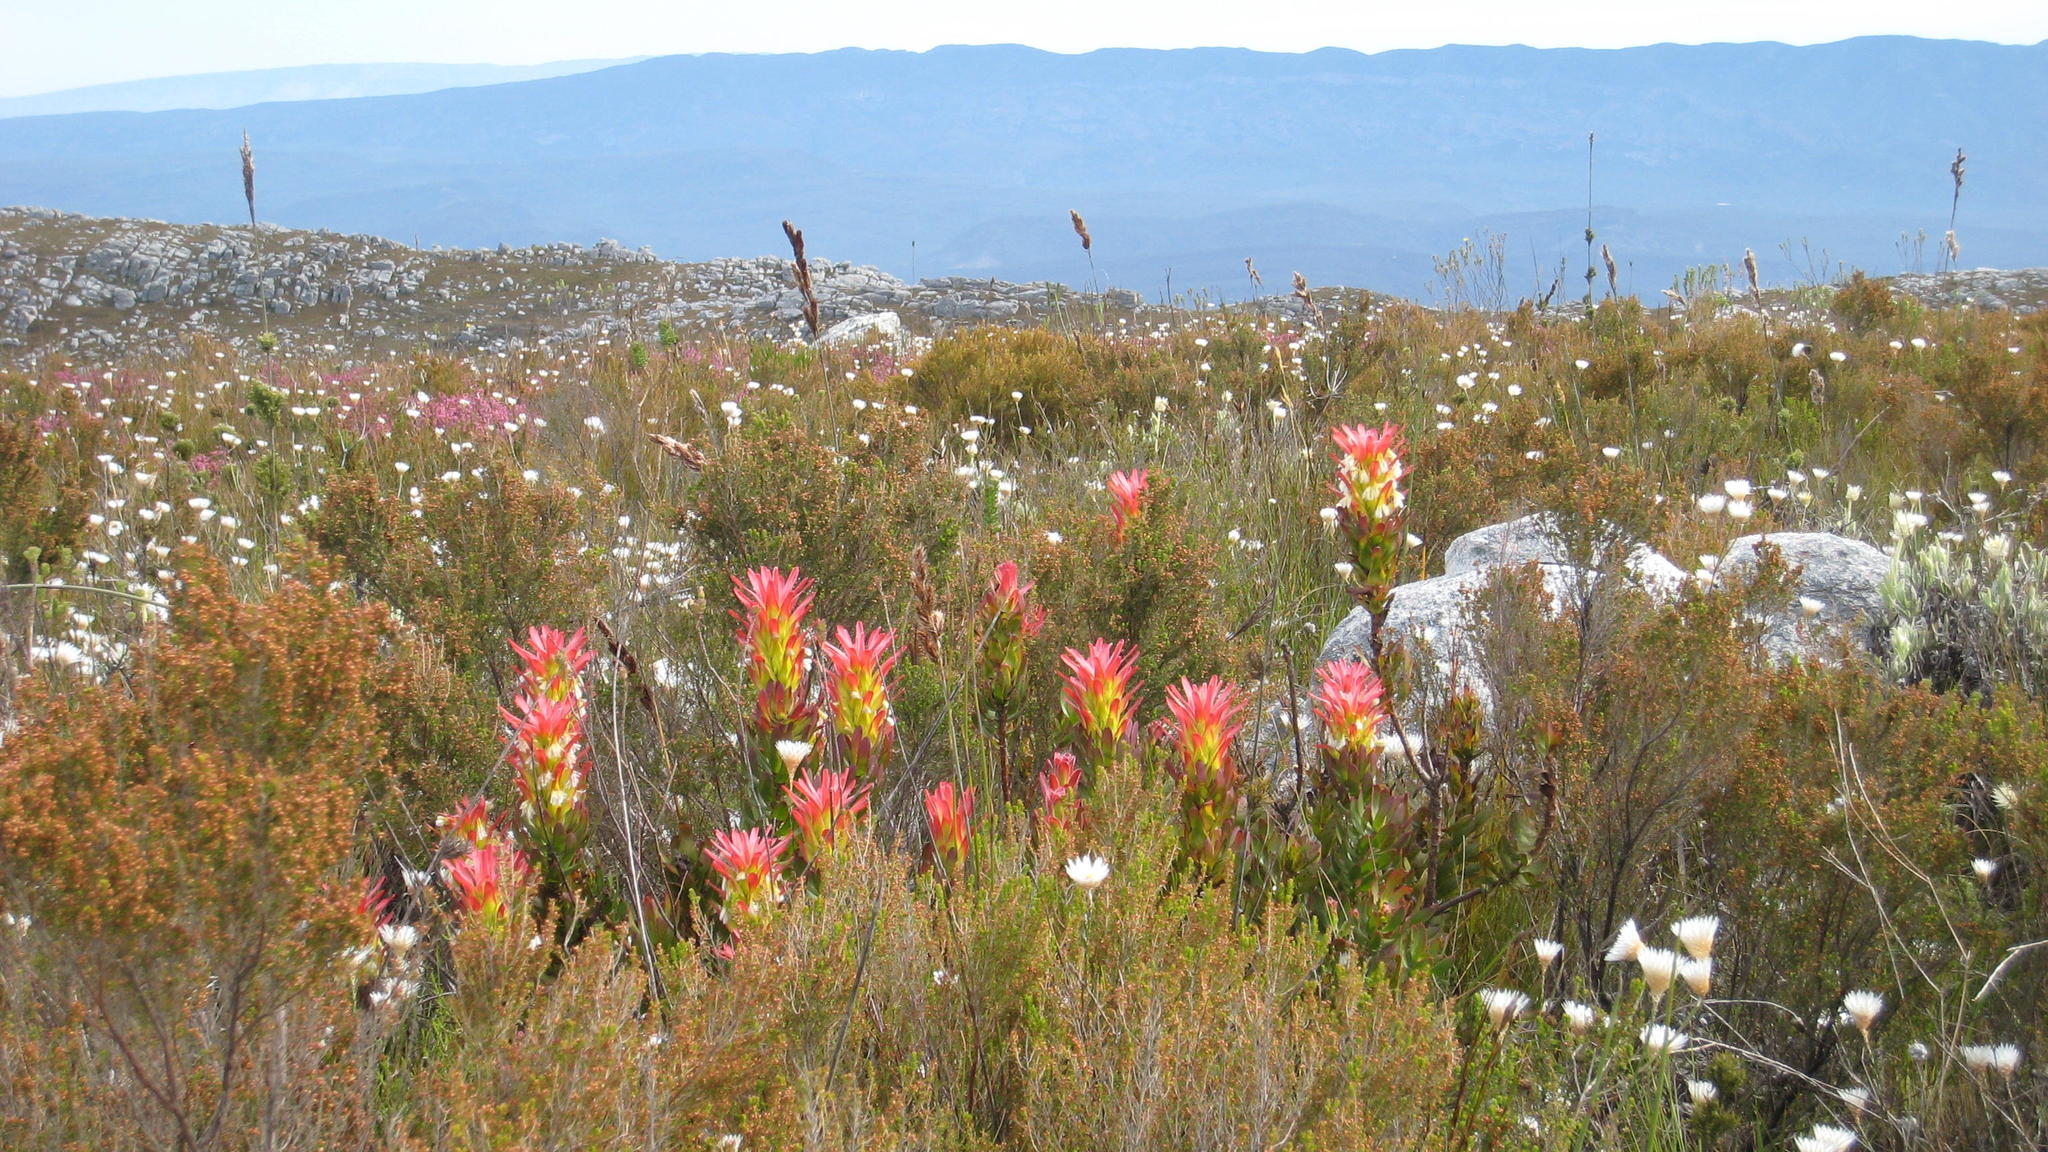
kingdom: Plantae
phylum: Tracheophyta
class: Magnoliopsida
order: Asterales
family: Asteraceae
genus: Edmondia
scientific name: Edmondia sesamoides
